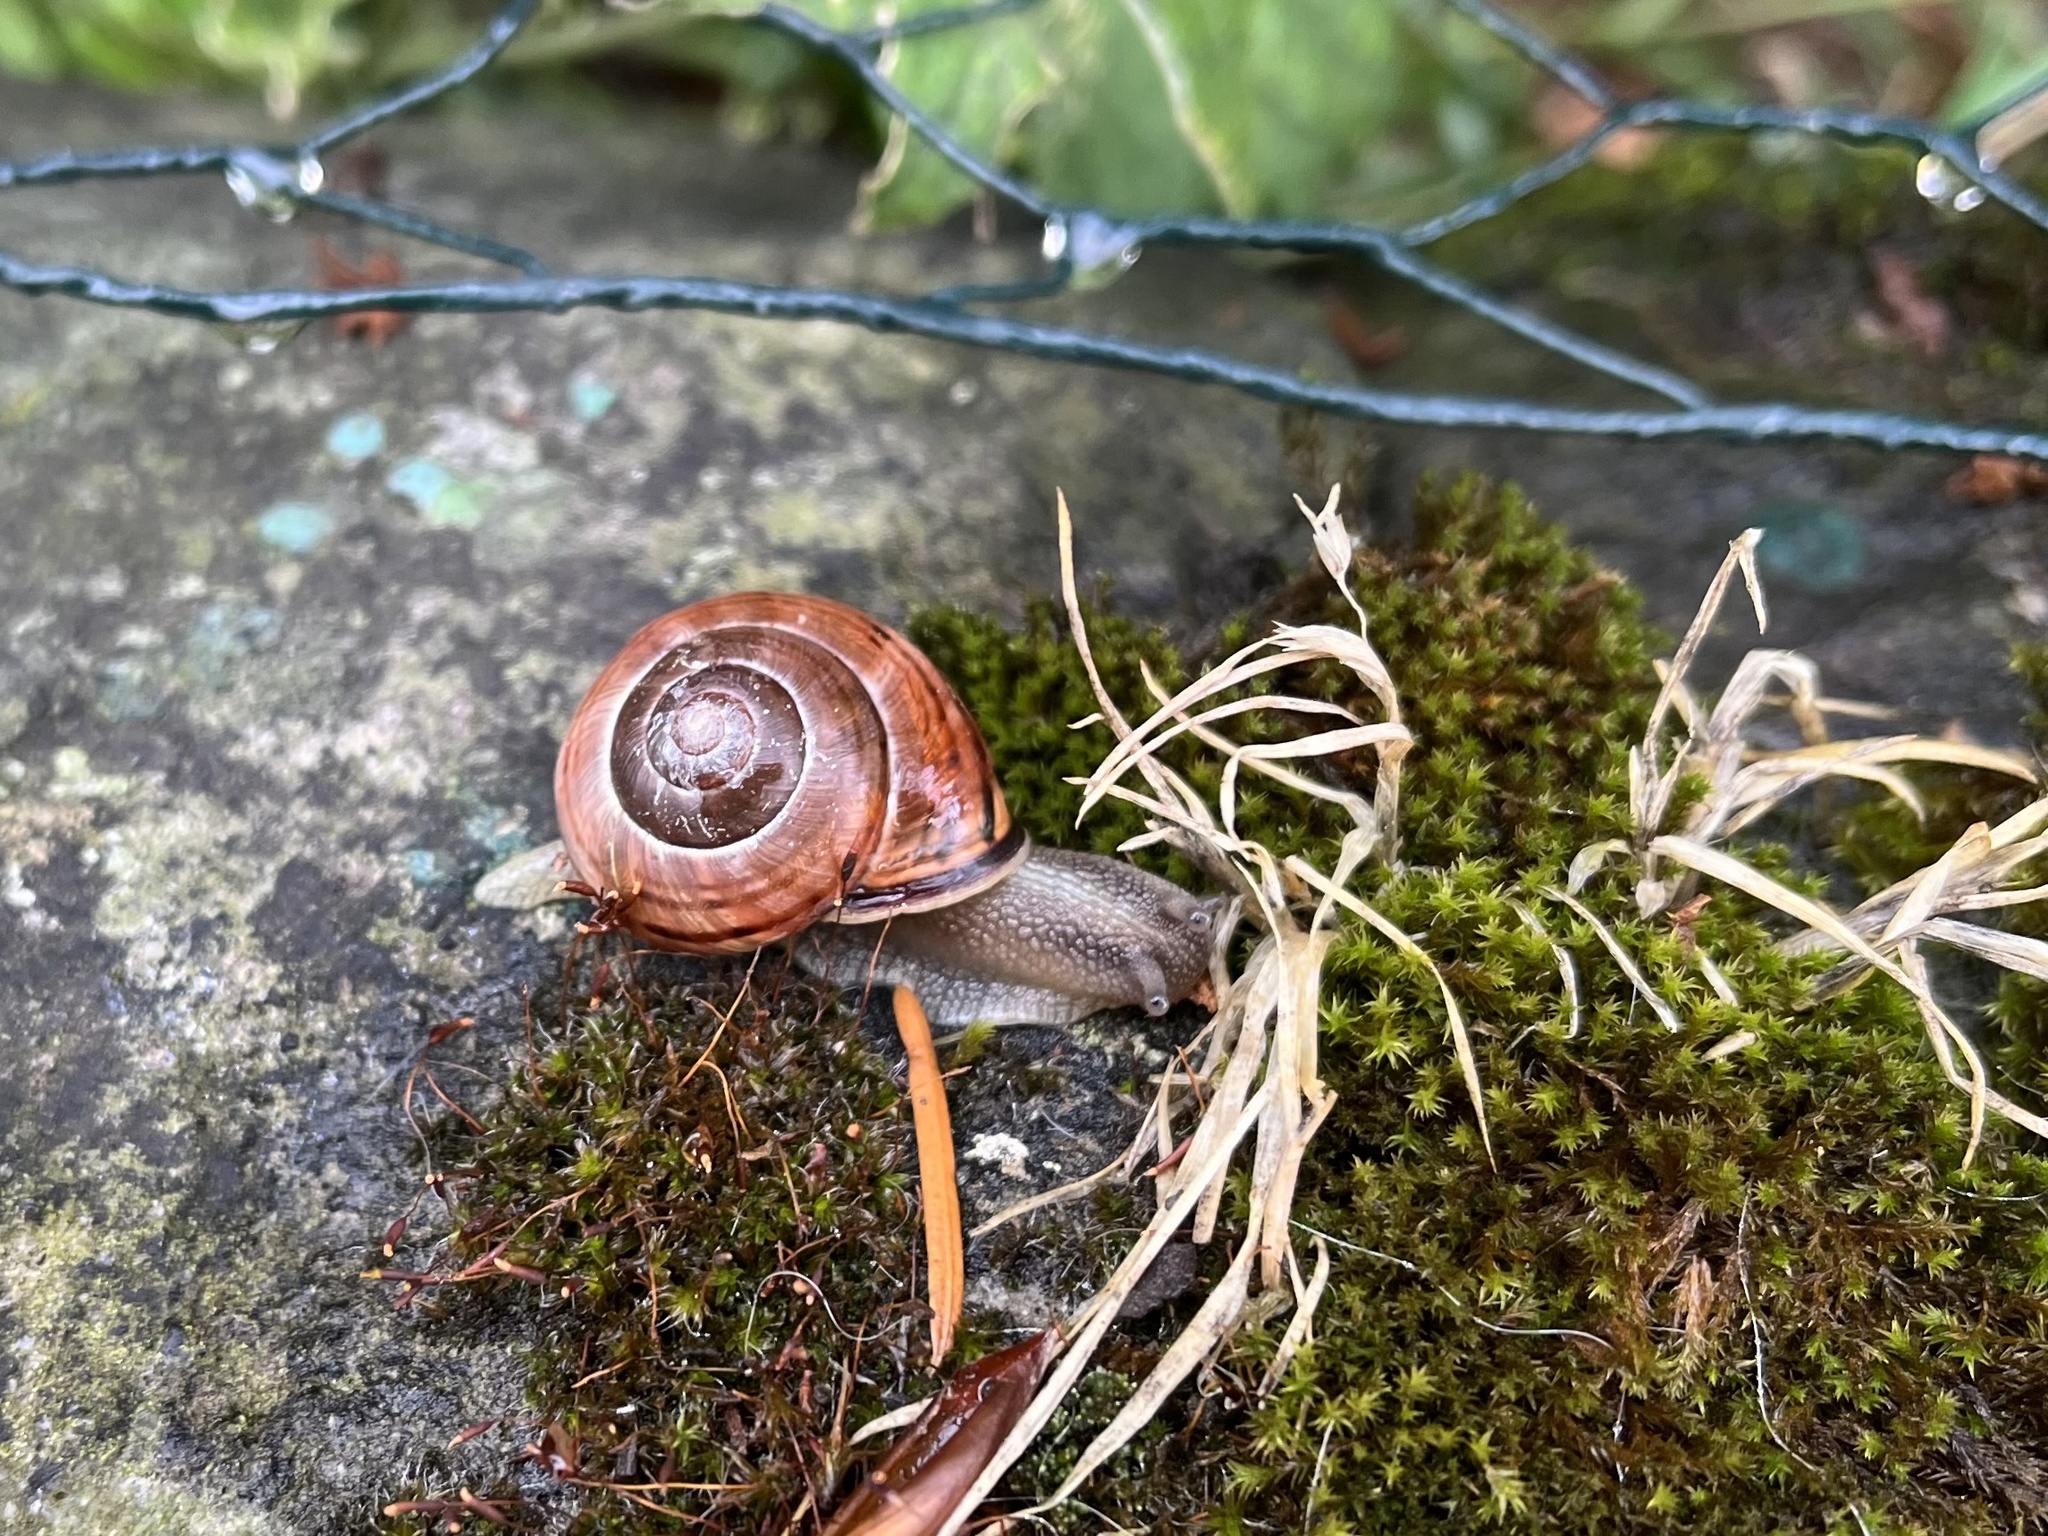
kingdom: Animalia
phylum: Mollusca
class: Gastropoda
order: Stylommatophora
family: Helicidae
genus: Cepaea
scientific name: Cepaea nemoralis
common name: Grovesnail
